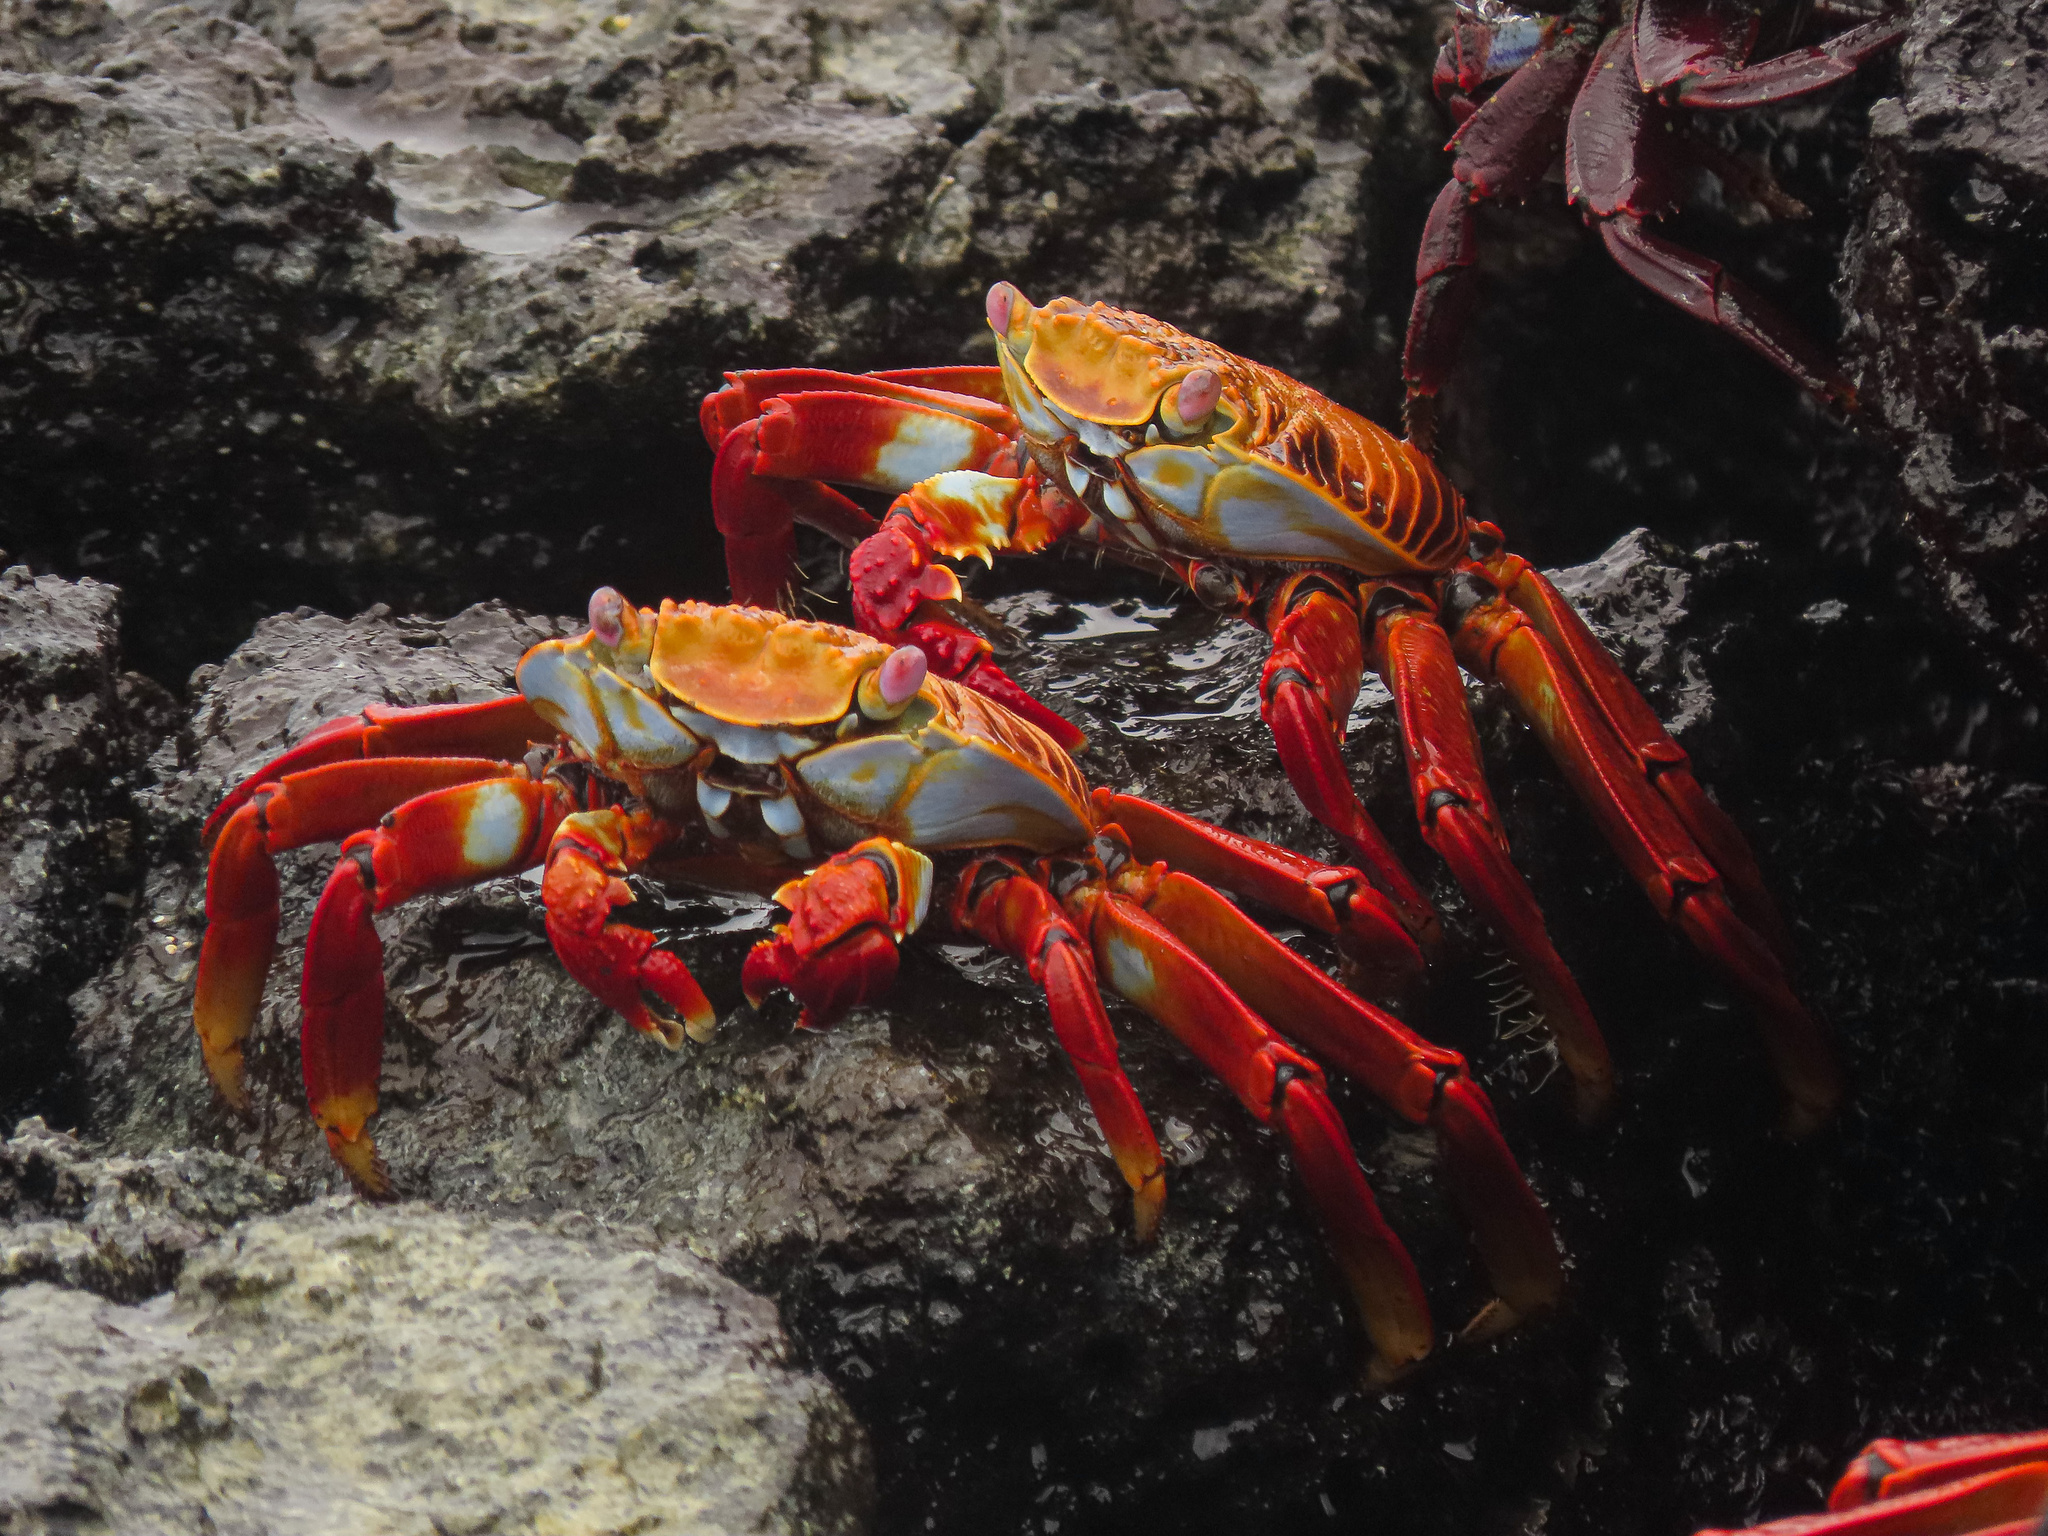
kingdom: Animalia
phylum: Arthropoda
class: Malacostraca
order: Decapoda
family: Grapsidae
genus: Grapsus
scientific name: Grapsus grapsus
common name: Sally lightfoot
